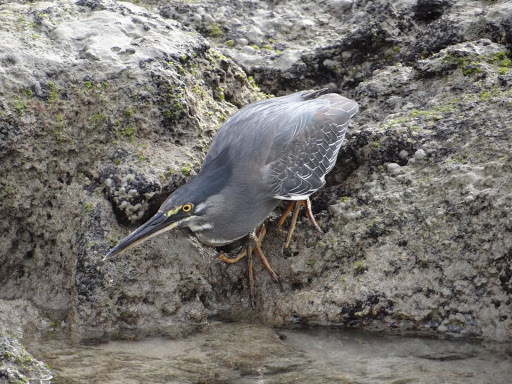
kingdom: Animalia
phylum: Chordata
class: Aves
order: Pelecaniformes
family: Ardeidae
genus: Butorides
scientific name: Butorides striata
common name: Striated heron
